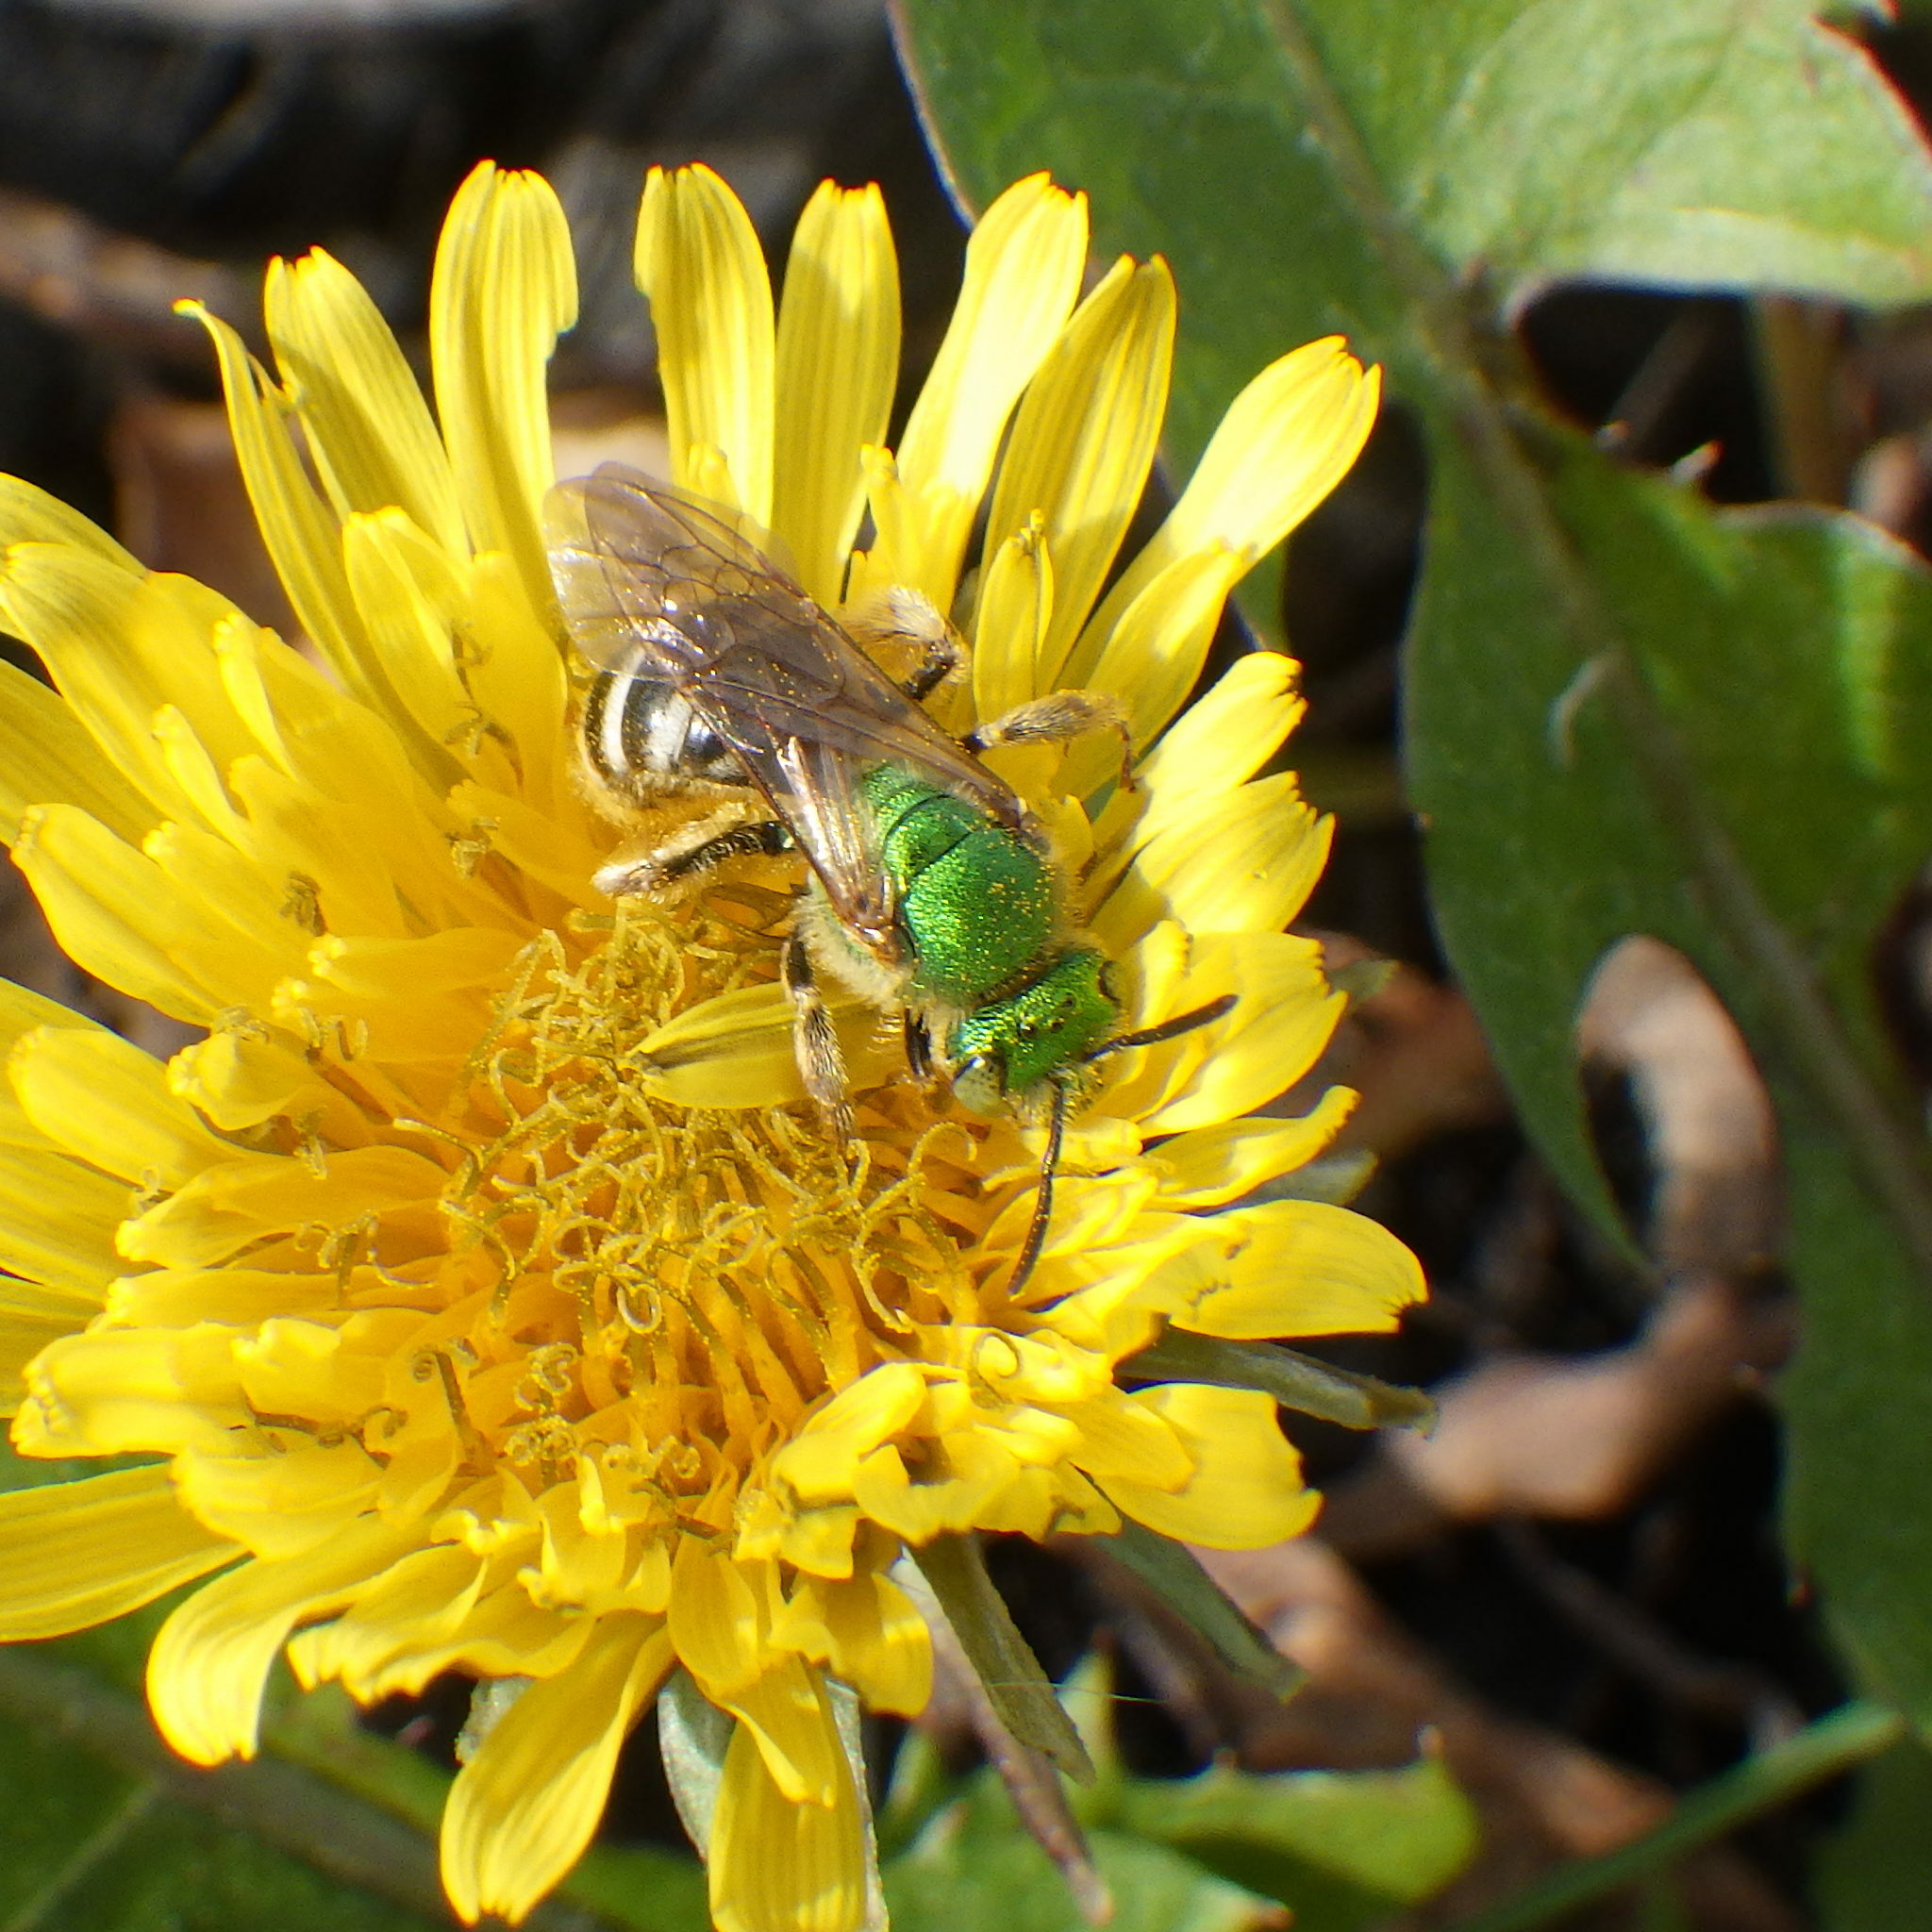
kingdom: Animalia
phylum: Arthropoda
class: Insecta
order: Hymenoptera
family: Halictidae
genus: Agapostemon
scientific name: Agapostemon virescens
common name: Bicolored striped sweat bee
